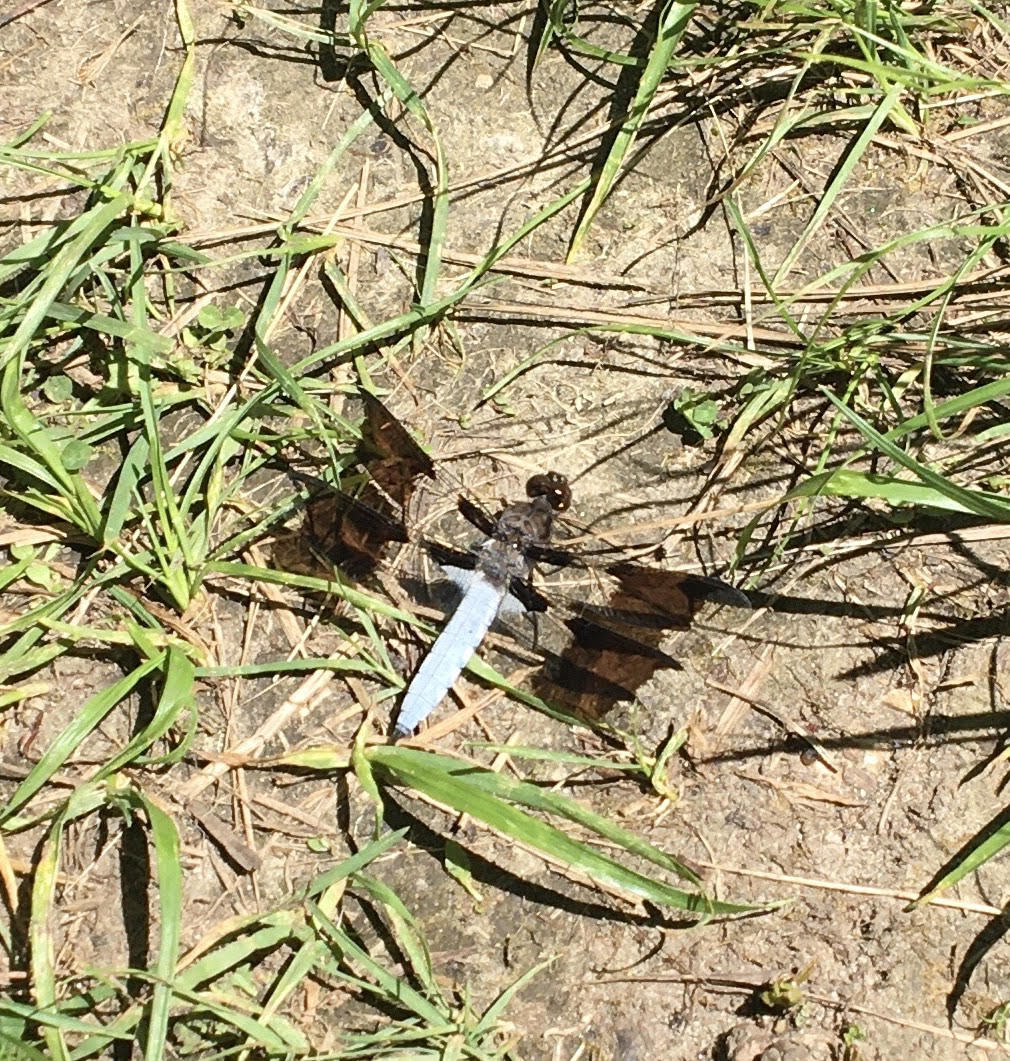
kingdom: Animalia
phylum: Arthropoda
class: Insecta
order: Odonata
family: Libellulidae
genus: Plathemis
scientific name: Plathemis lydia
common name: Common whitetail
